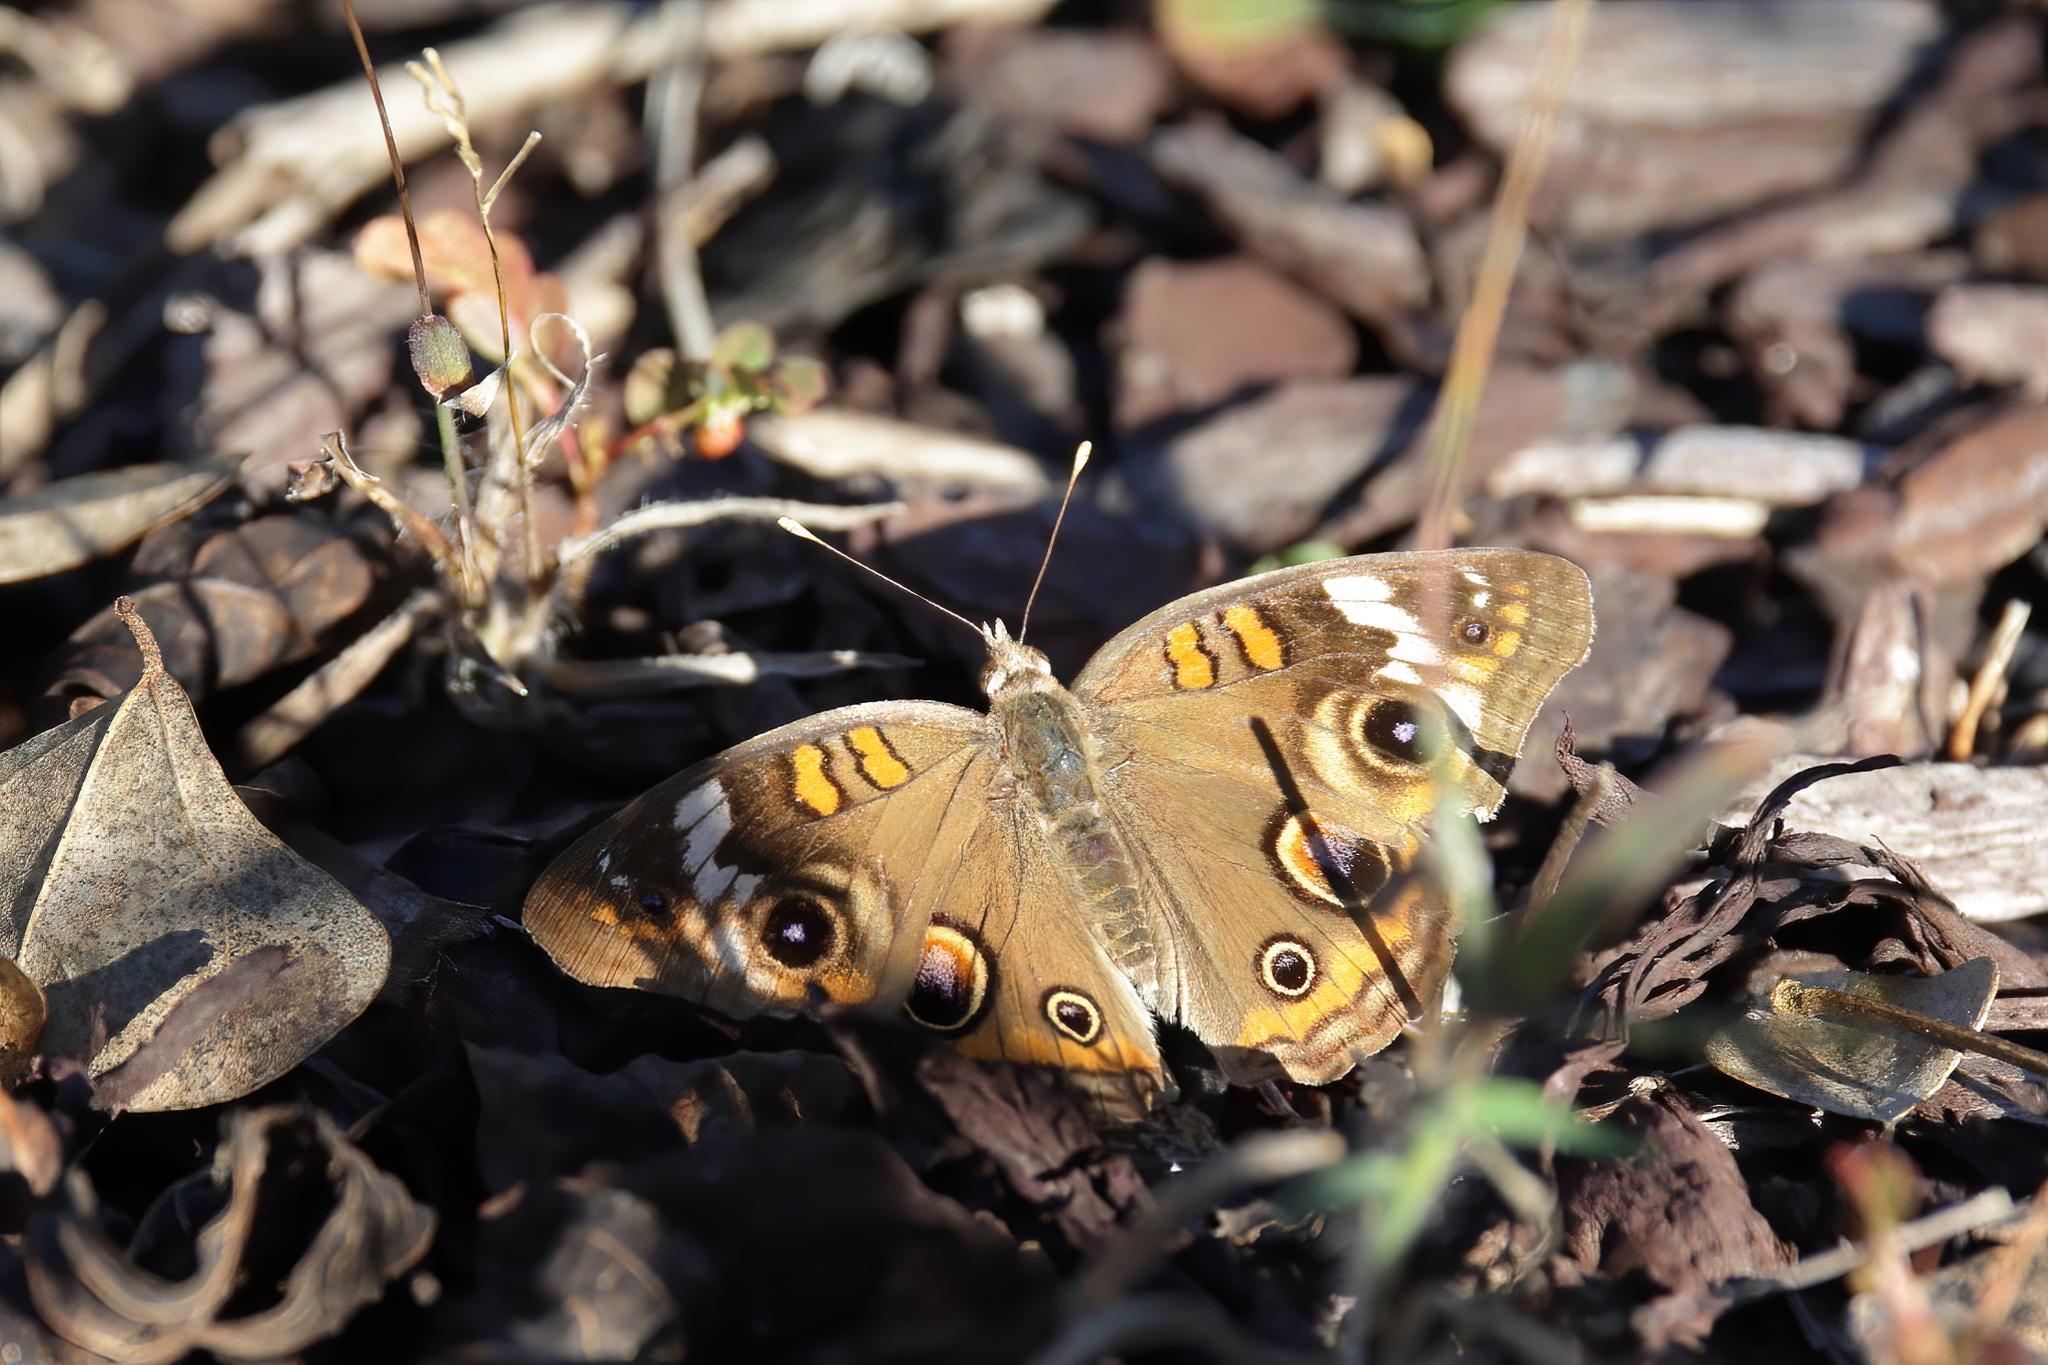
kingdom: Animalia
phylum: Arthropoda
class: Insecta
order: Lepidoptera
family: Nymphalidae
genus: Junonia
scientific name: Junonia coenia
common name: Common buckeye
